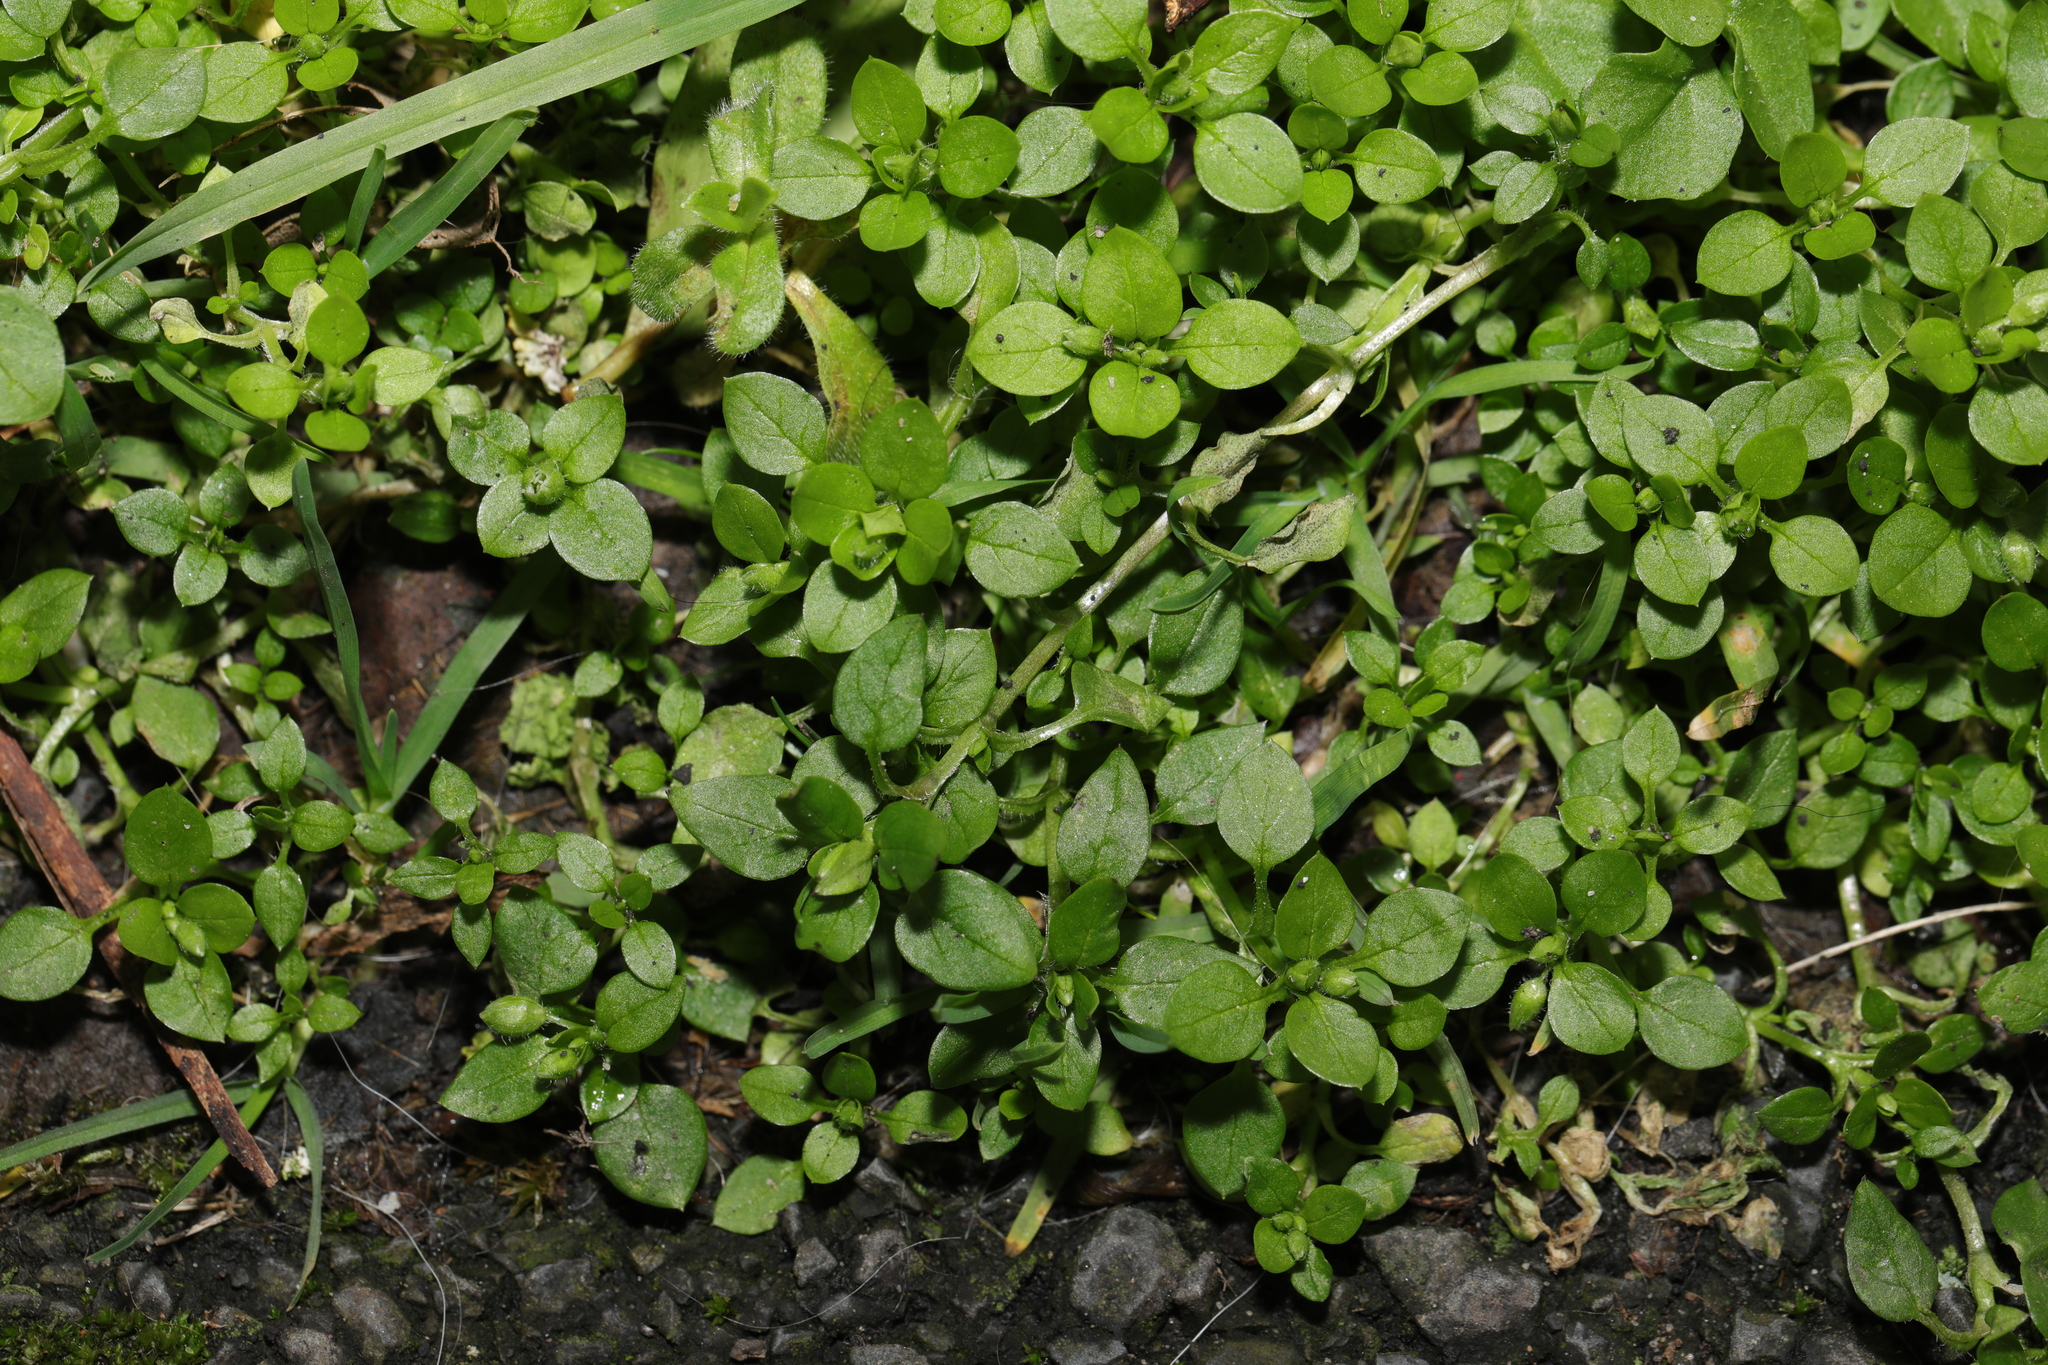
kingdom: Plantae
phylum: Tracheophyta
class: Magnoliopsida
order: Caryophyllales
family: Caryophyllaceae
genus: Stellaria
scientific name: Stellaria media
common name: Common chickweed
